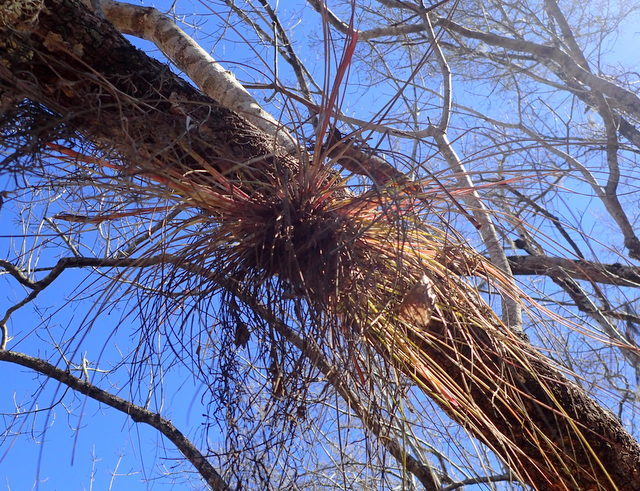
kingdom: Plantae
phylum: Tracheophyta
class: Liliopsida
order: Poales
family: Bromeliaceae
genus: Tillandsia
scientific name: Tillandsia bartramii
